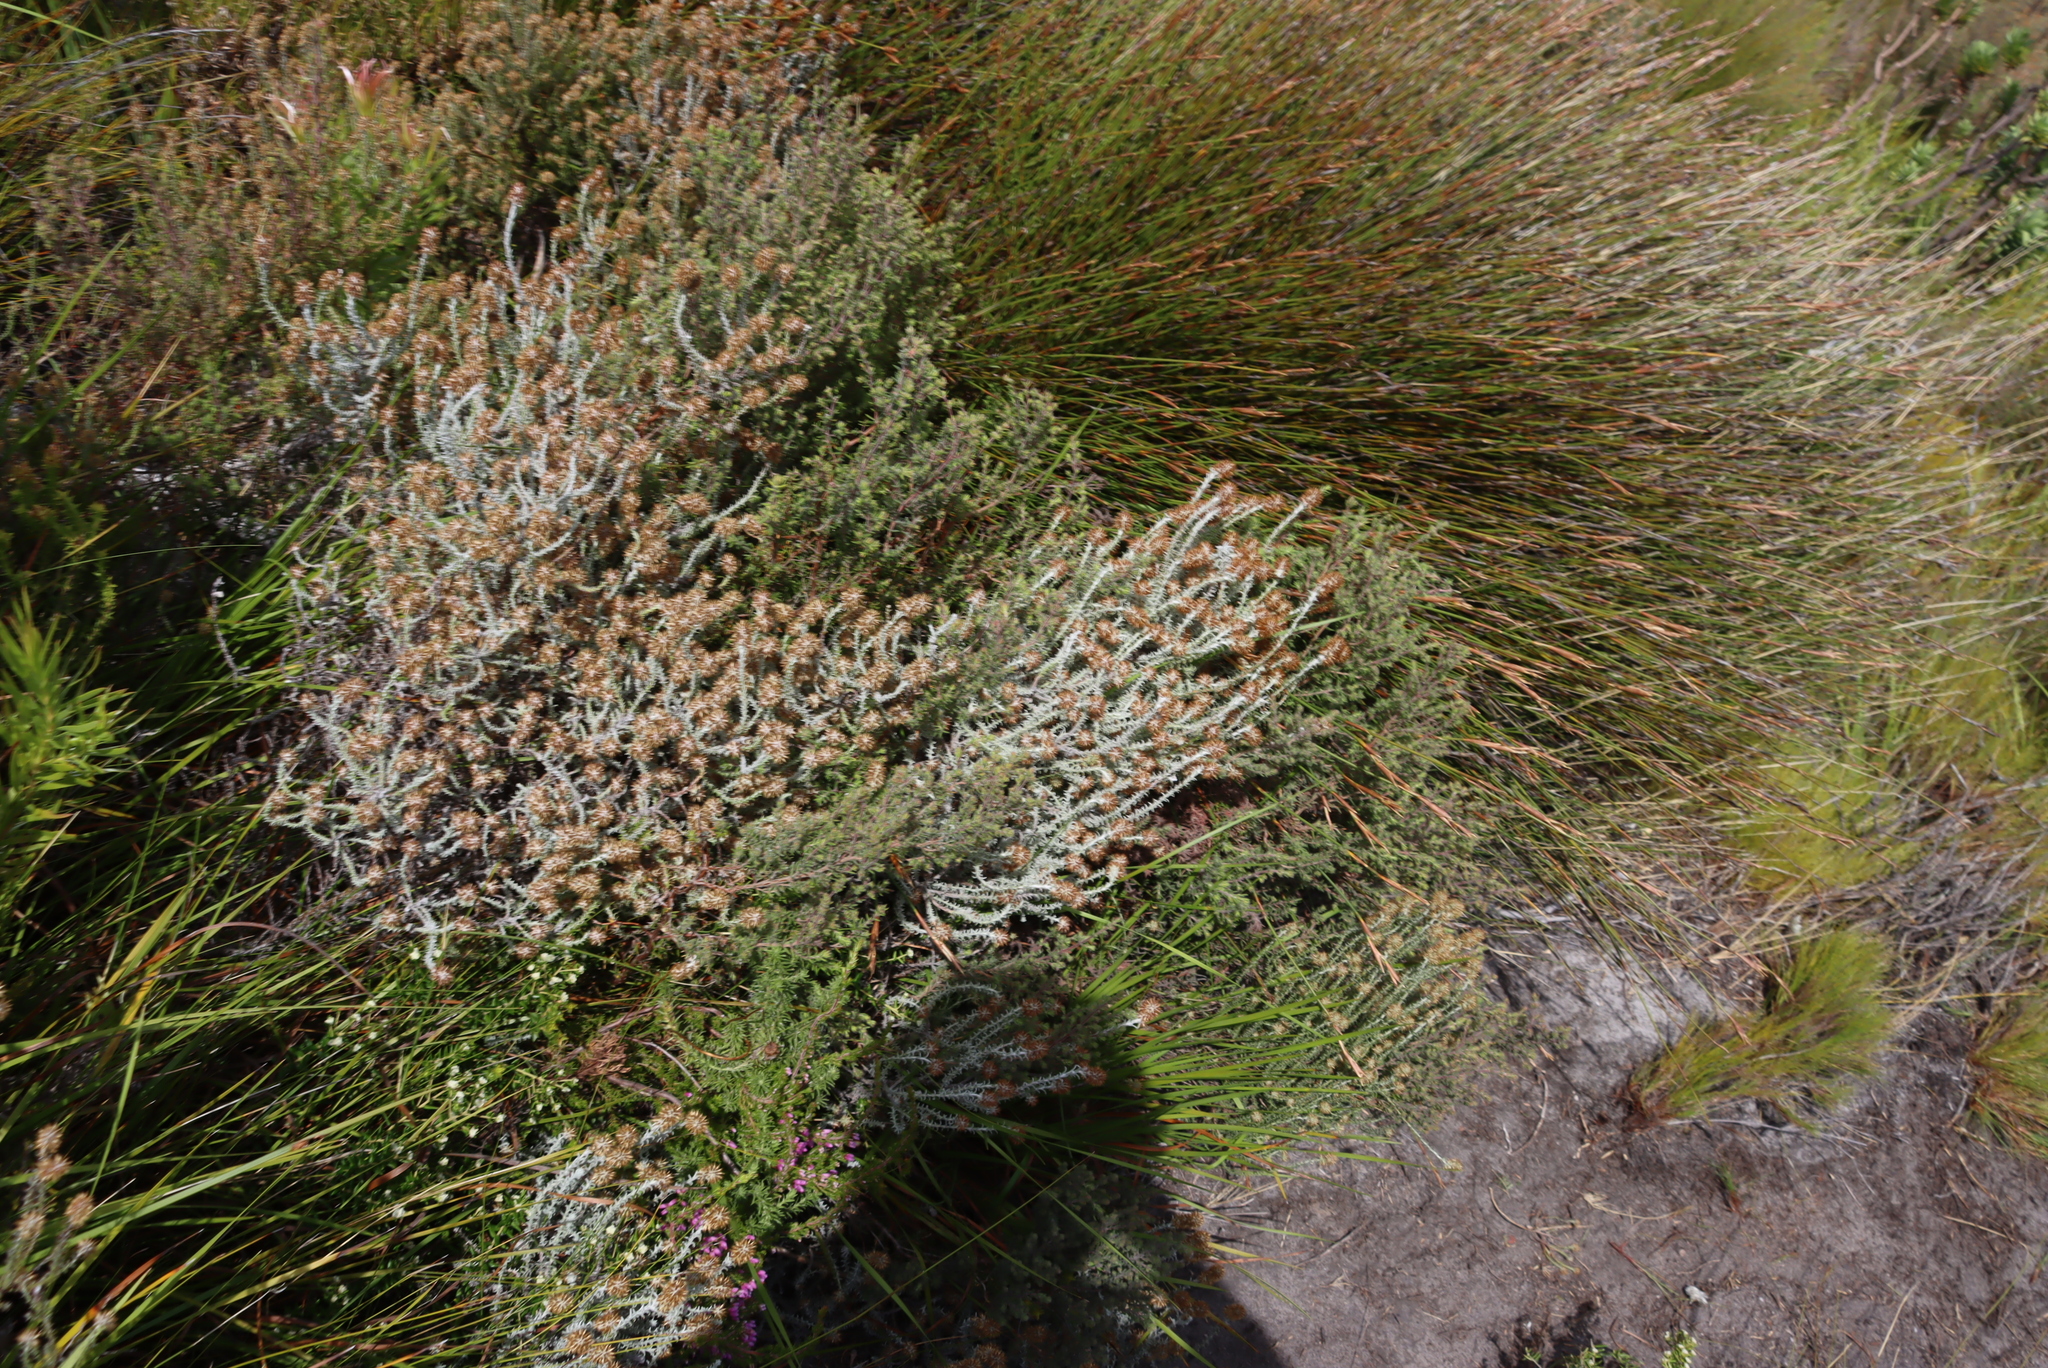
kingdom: Plantae
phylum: Tracheophyta
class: Magnoliopsida
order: Asterales
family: Asteraceae
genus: Seriphium
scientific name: Seriphium incanum
